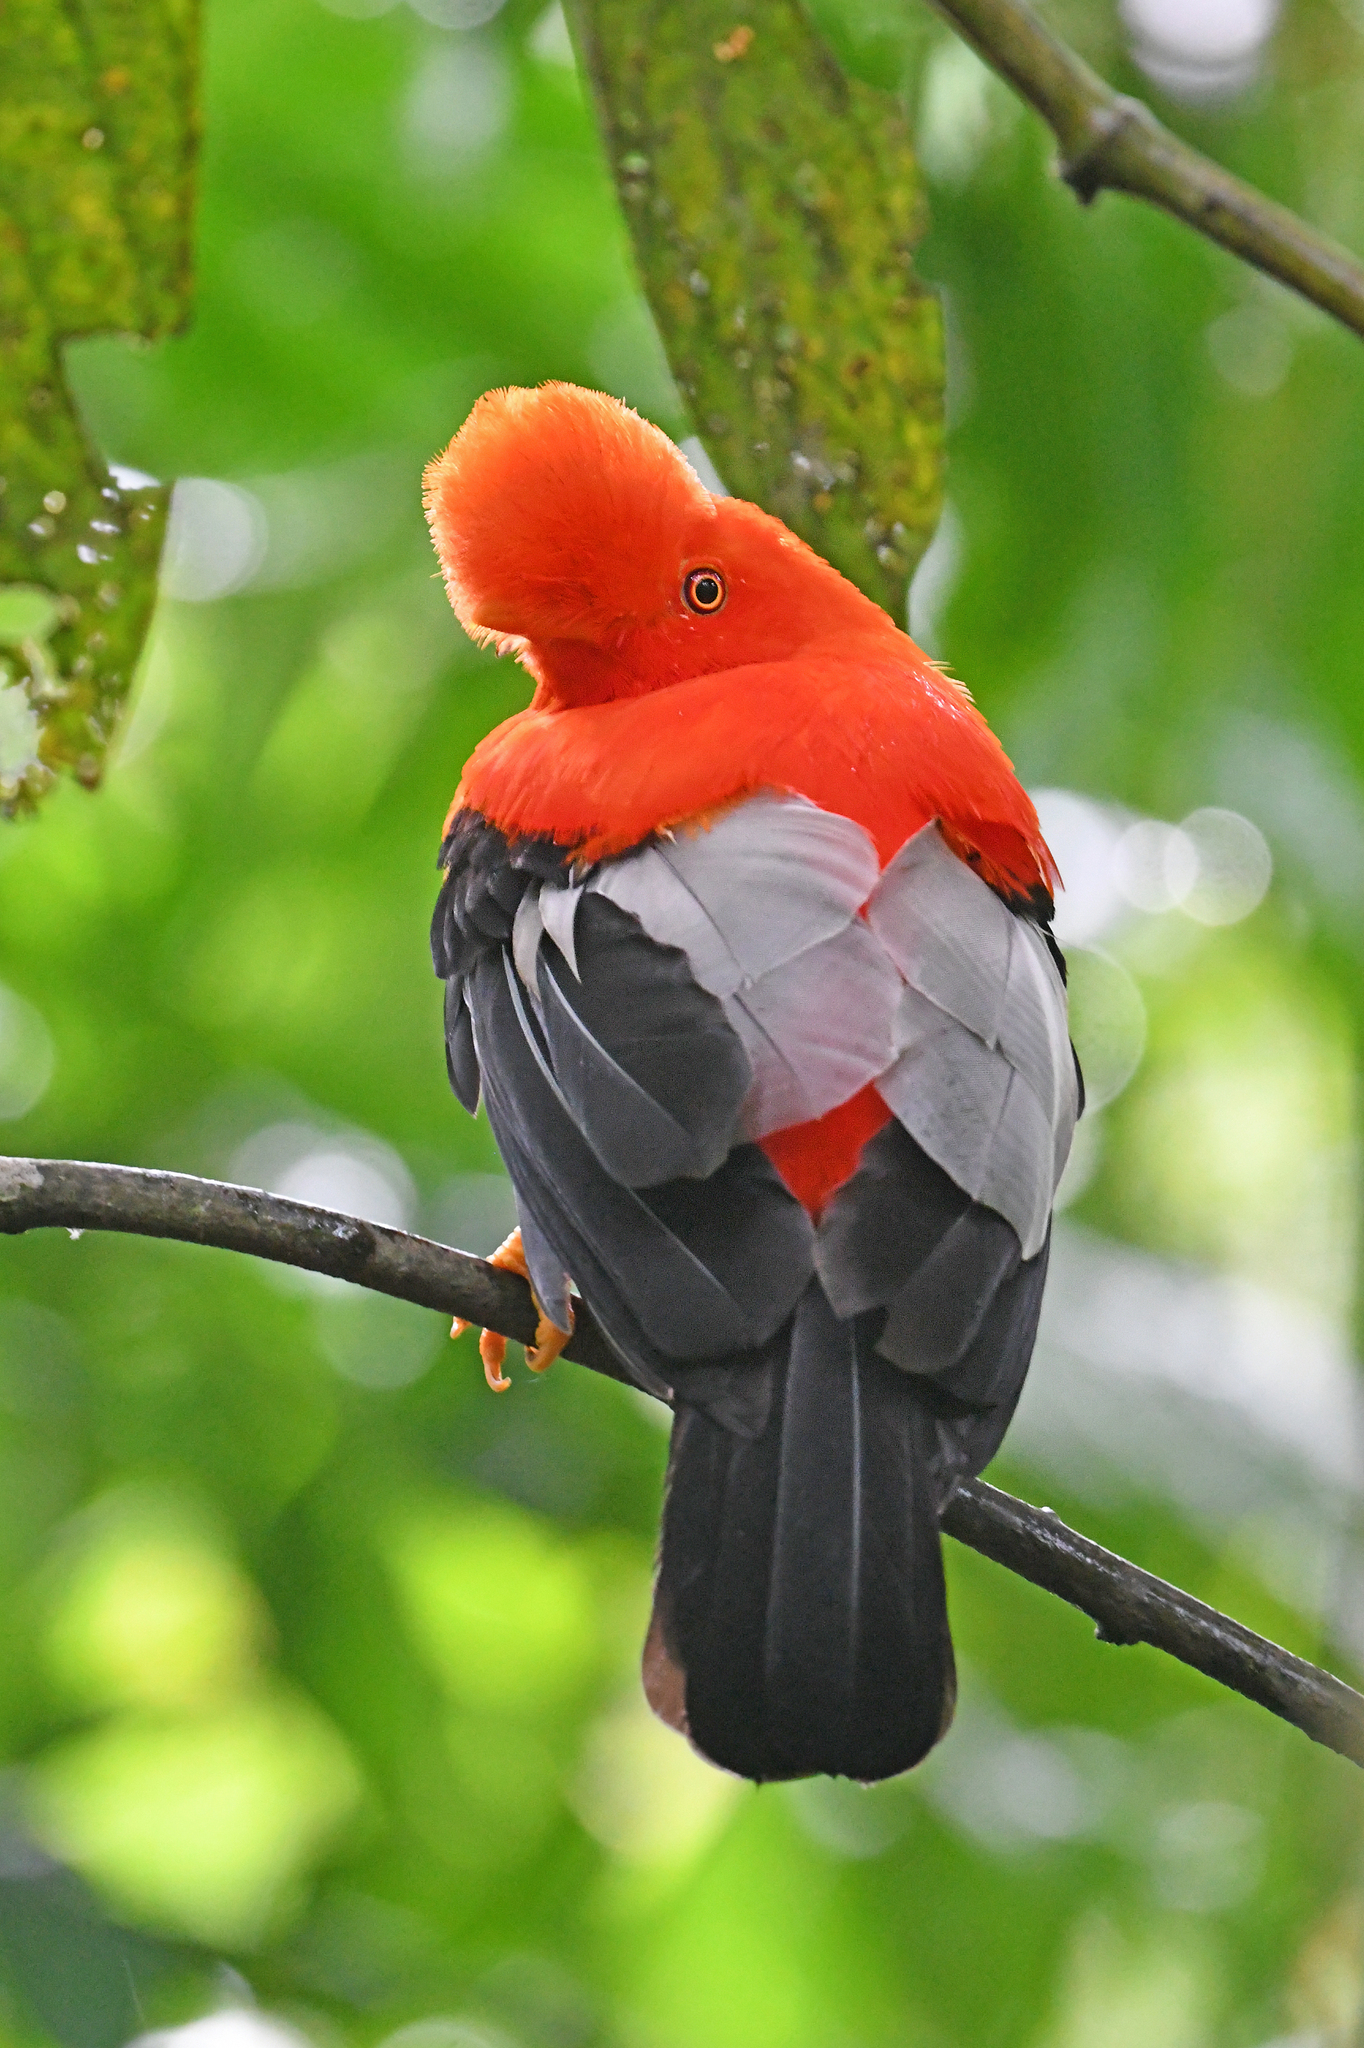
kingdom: Animalia
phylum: Chordata
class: Aves
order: Passeriformes
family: Cotingidae
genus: Rupicola
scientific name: Rupicola peruvianus
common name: Andean cock-of-the-rock
